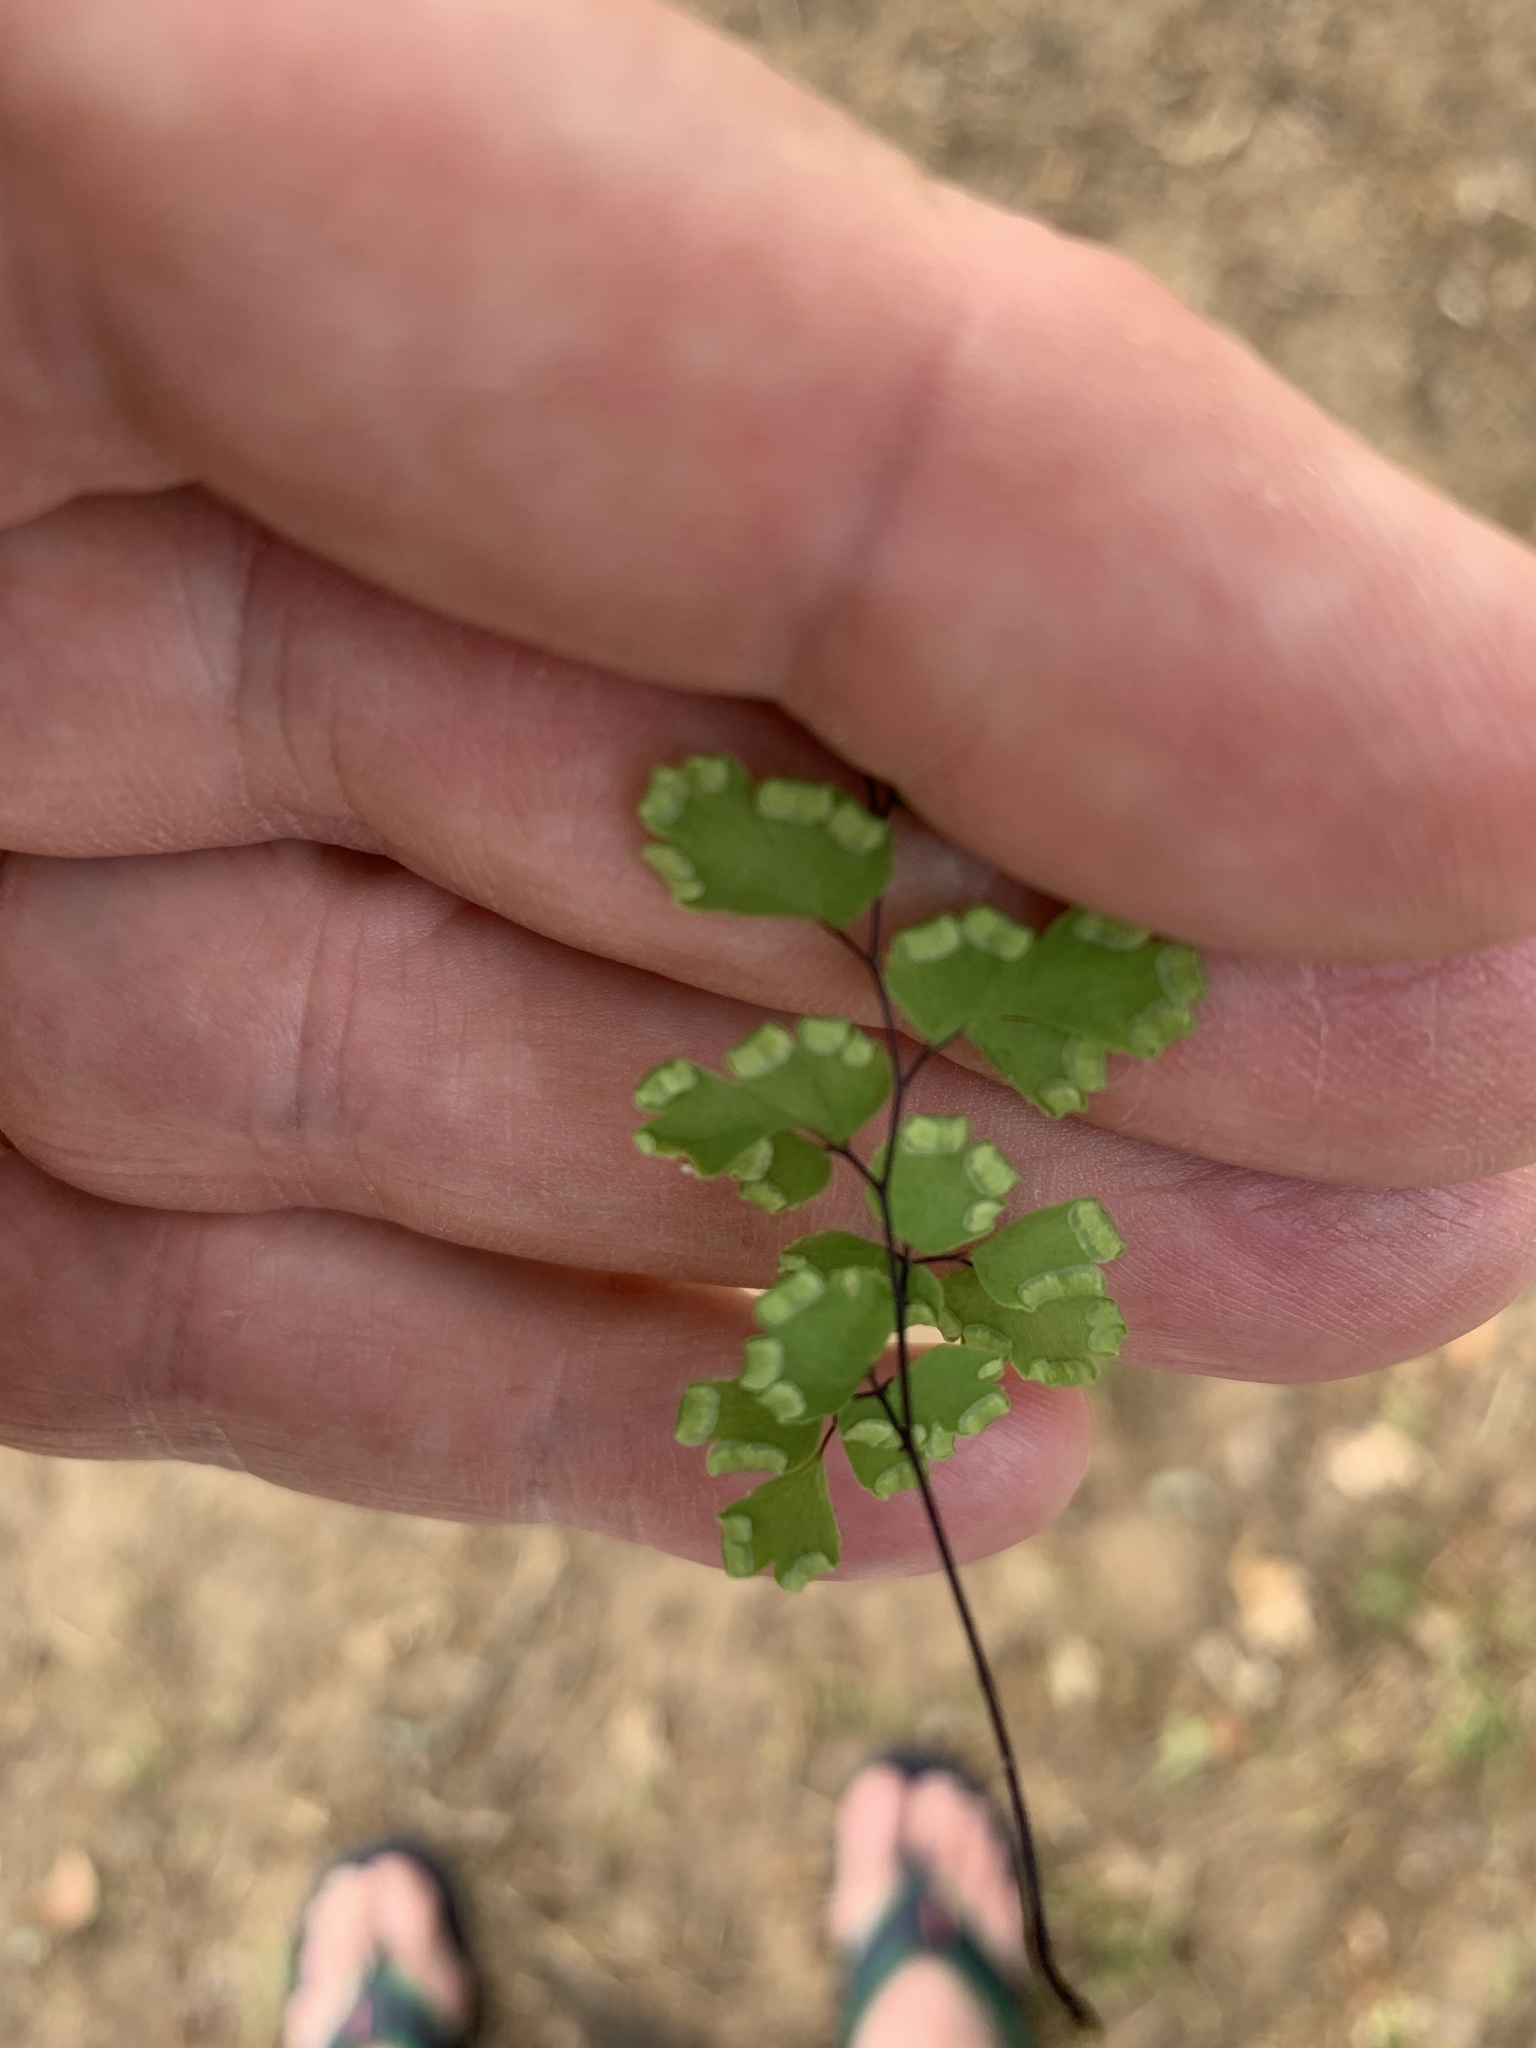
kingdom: Plantae
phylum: Tracheophyta
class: Polypodiopsida
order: Polypodiales
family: Pteridaceae
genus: Adiantum
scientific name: Adiantum capillus-veneris
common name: Maidenhair fern
